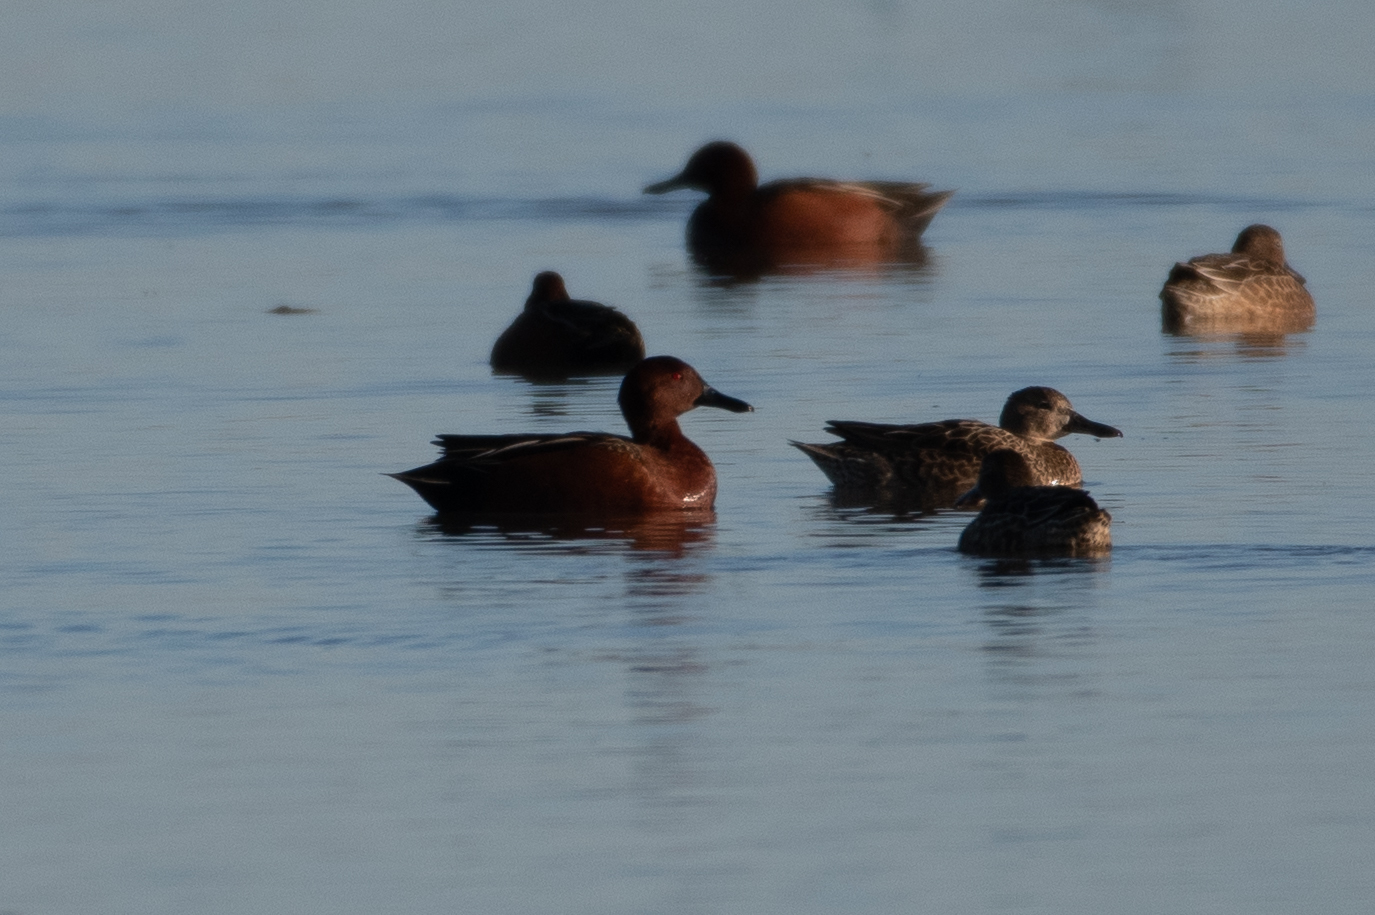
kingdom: Animalia
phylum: Chordata
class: Aves
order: Anseriformes
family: Anatidae
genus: Spatula
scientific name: Spatula cyanoptera
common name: Cinnamon teal
